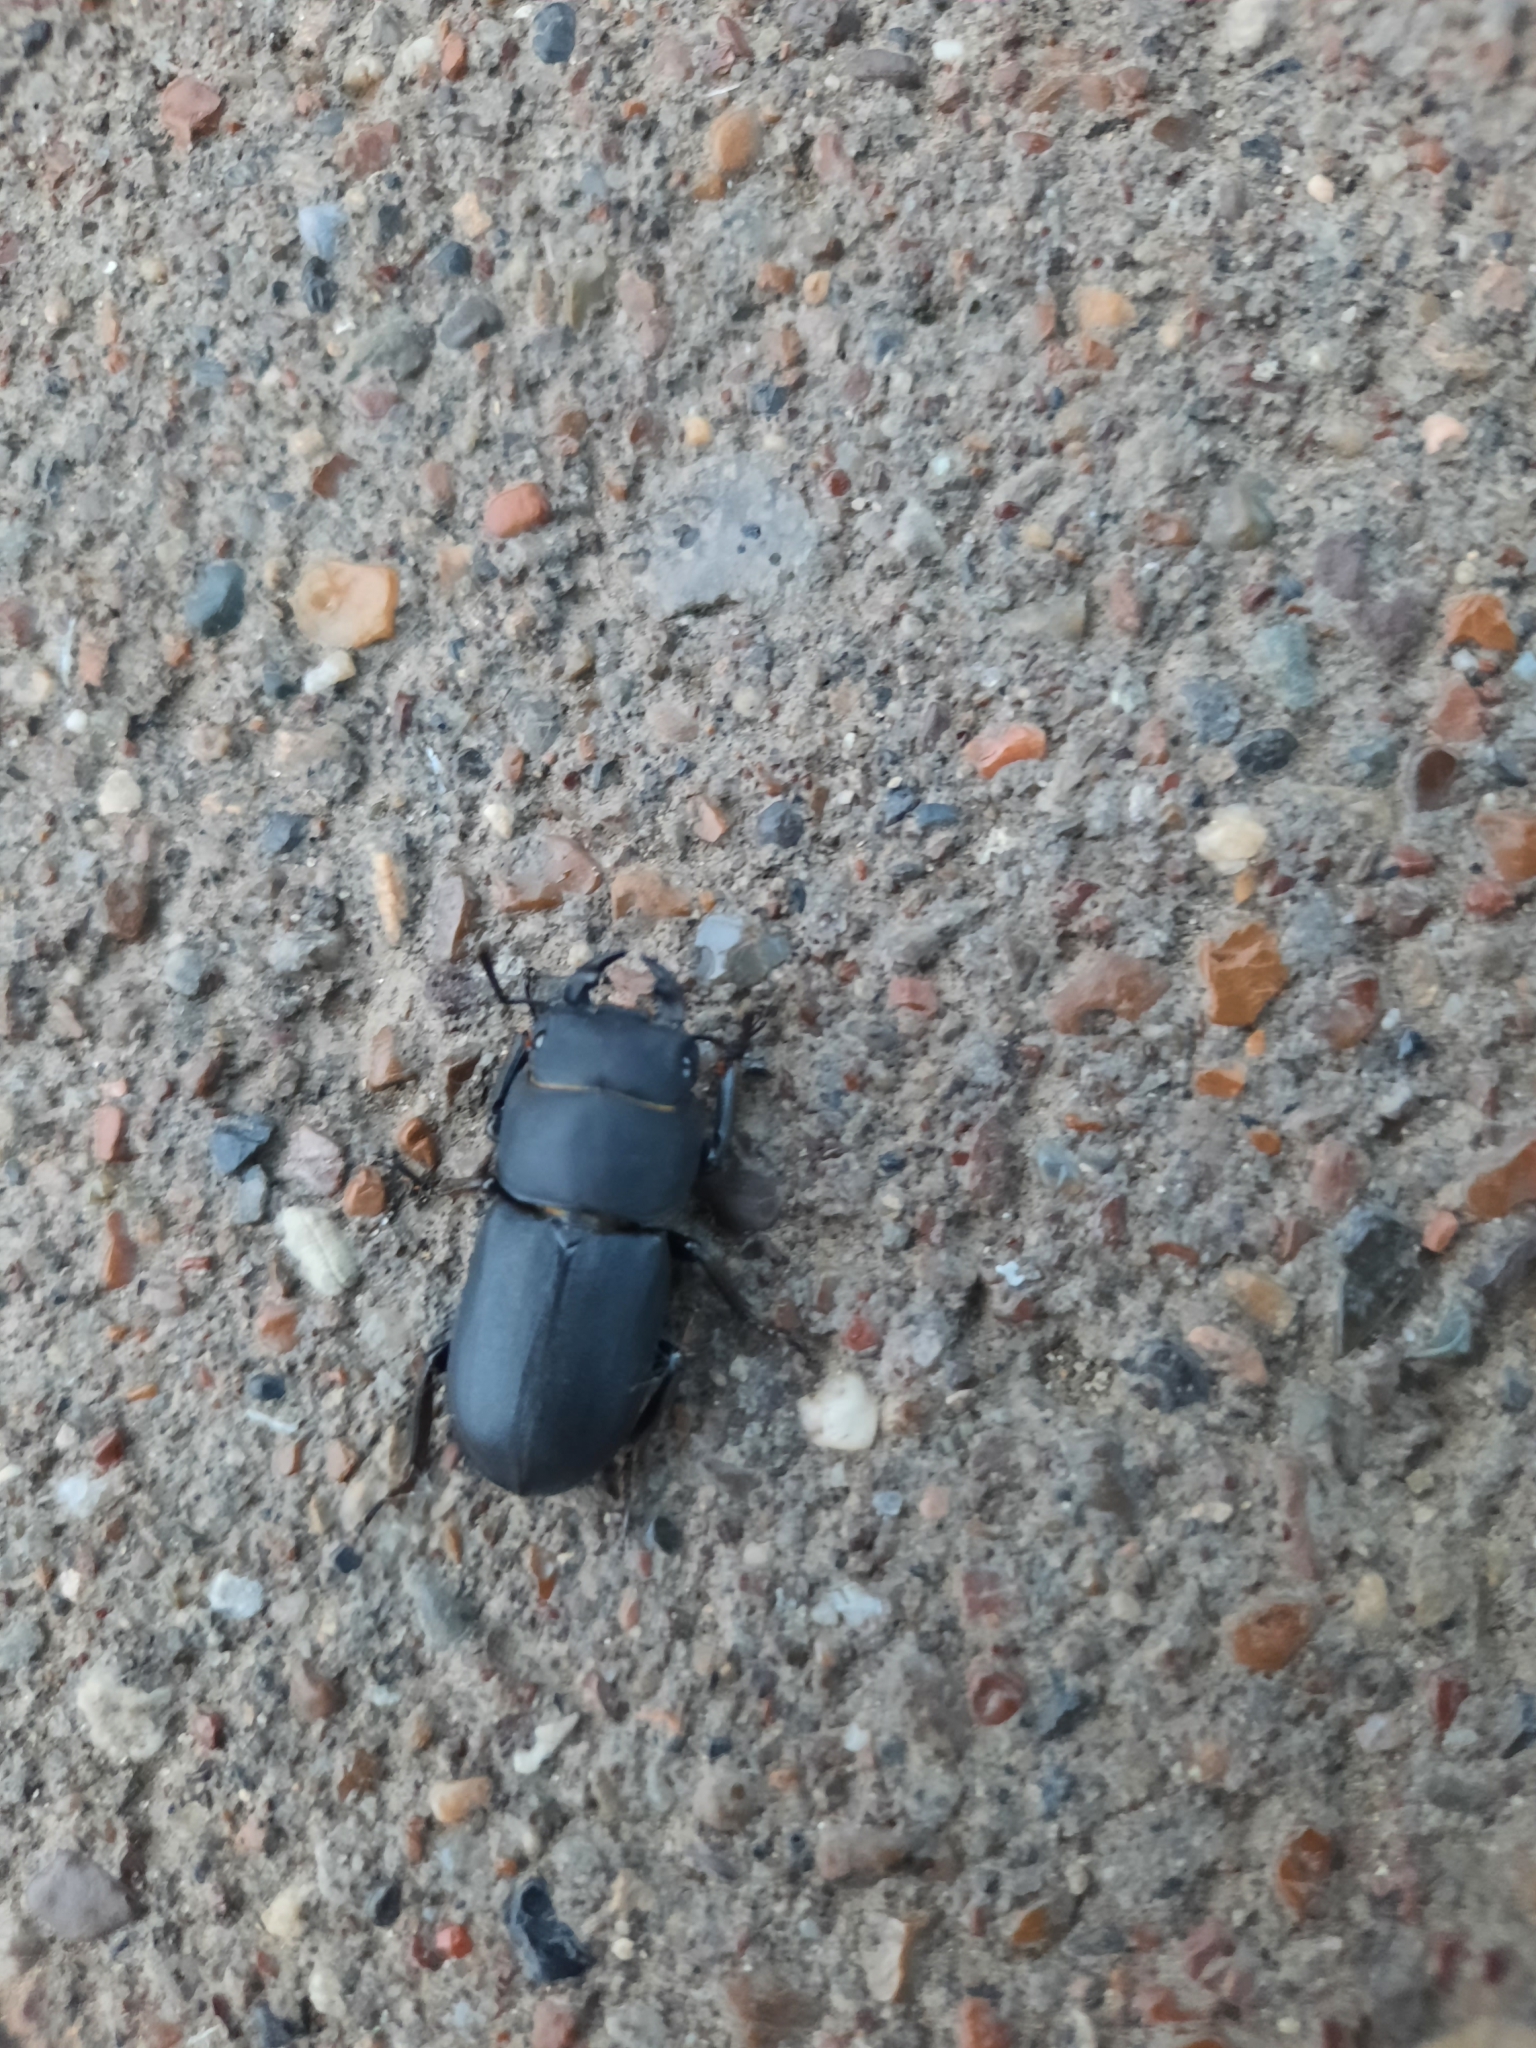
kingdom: Animalia
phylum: Arthropoda
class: Insecta
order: Coleoptera
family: Lucanidae
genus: Dorcus
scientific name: Dorcus parallelipipedus
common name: Lesser stag beetle
